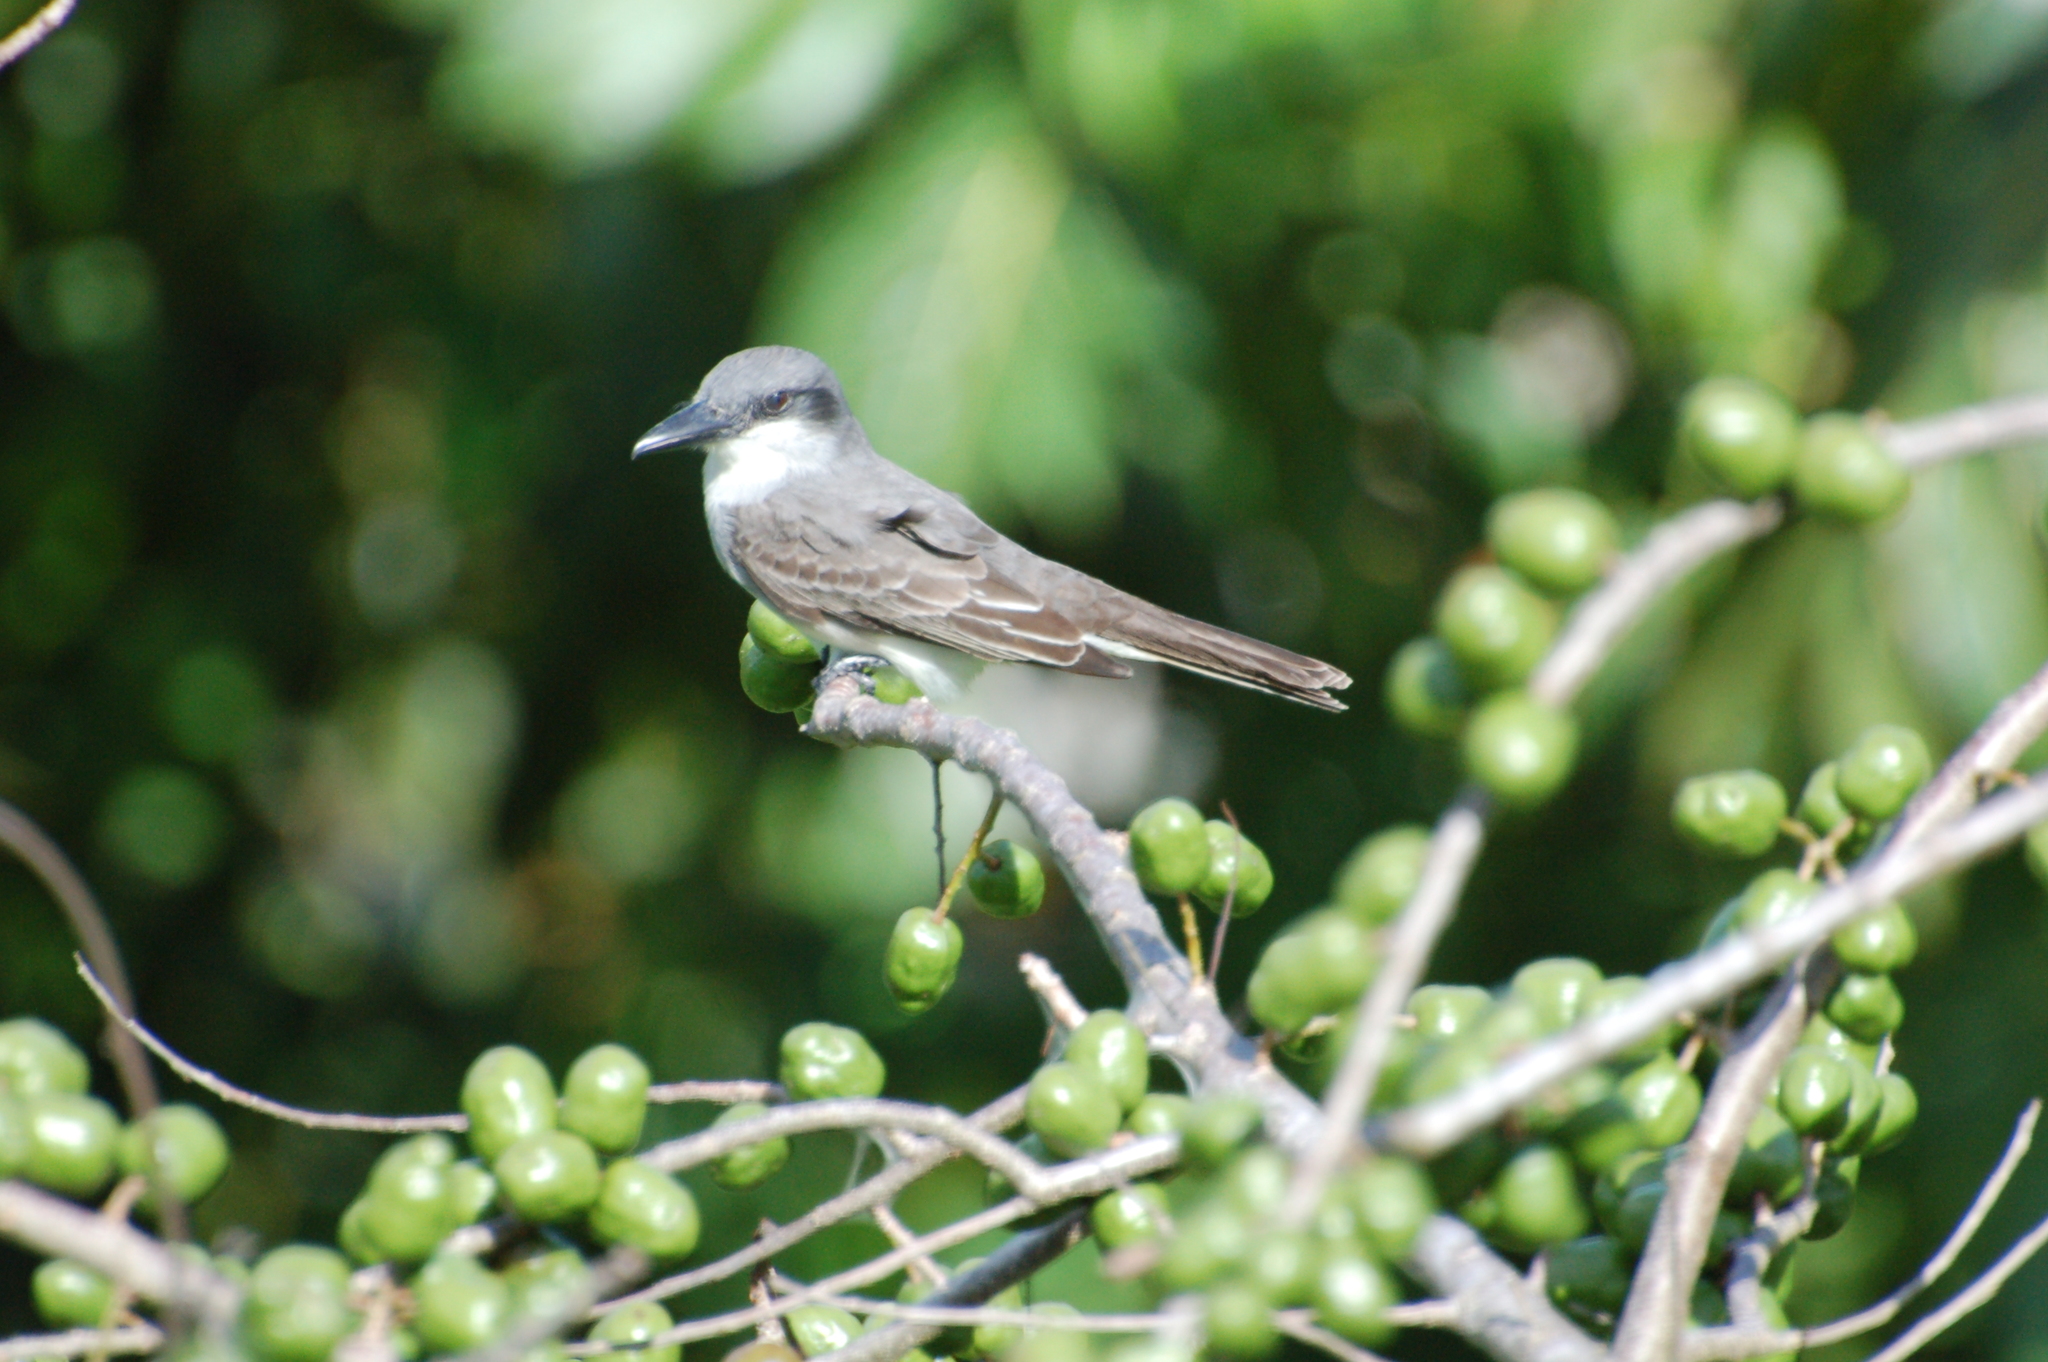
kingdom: Animalia
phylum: Chordata
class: Aves
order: Passeriformes
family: Tyrannidae
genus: Tyrannus
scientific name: Tyrannus dominicensis
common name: Gray kingbird
